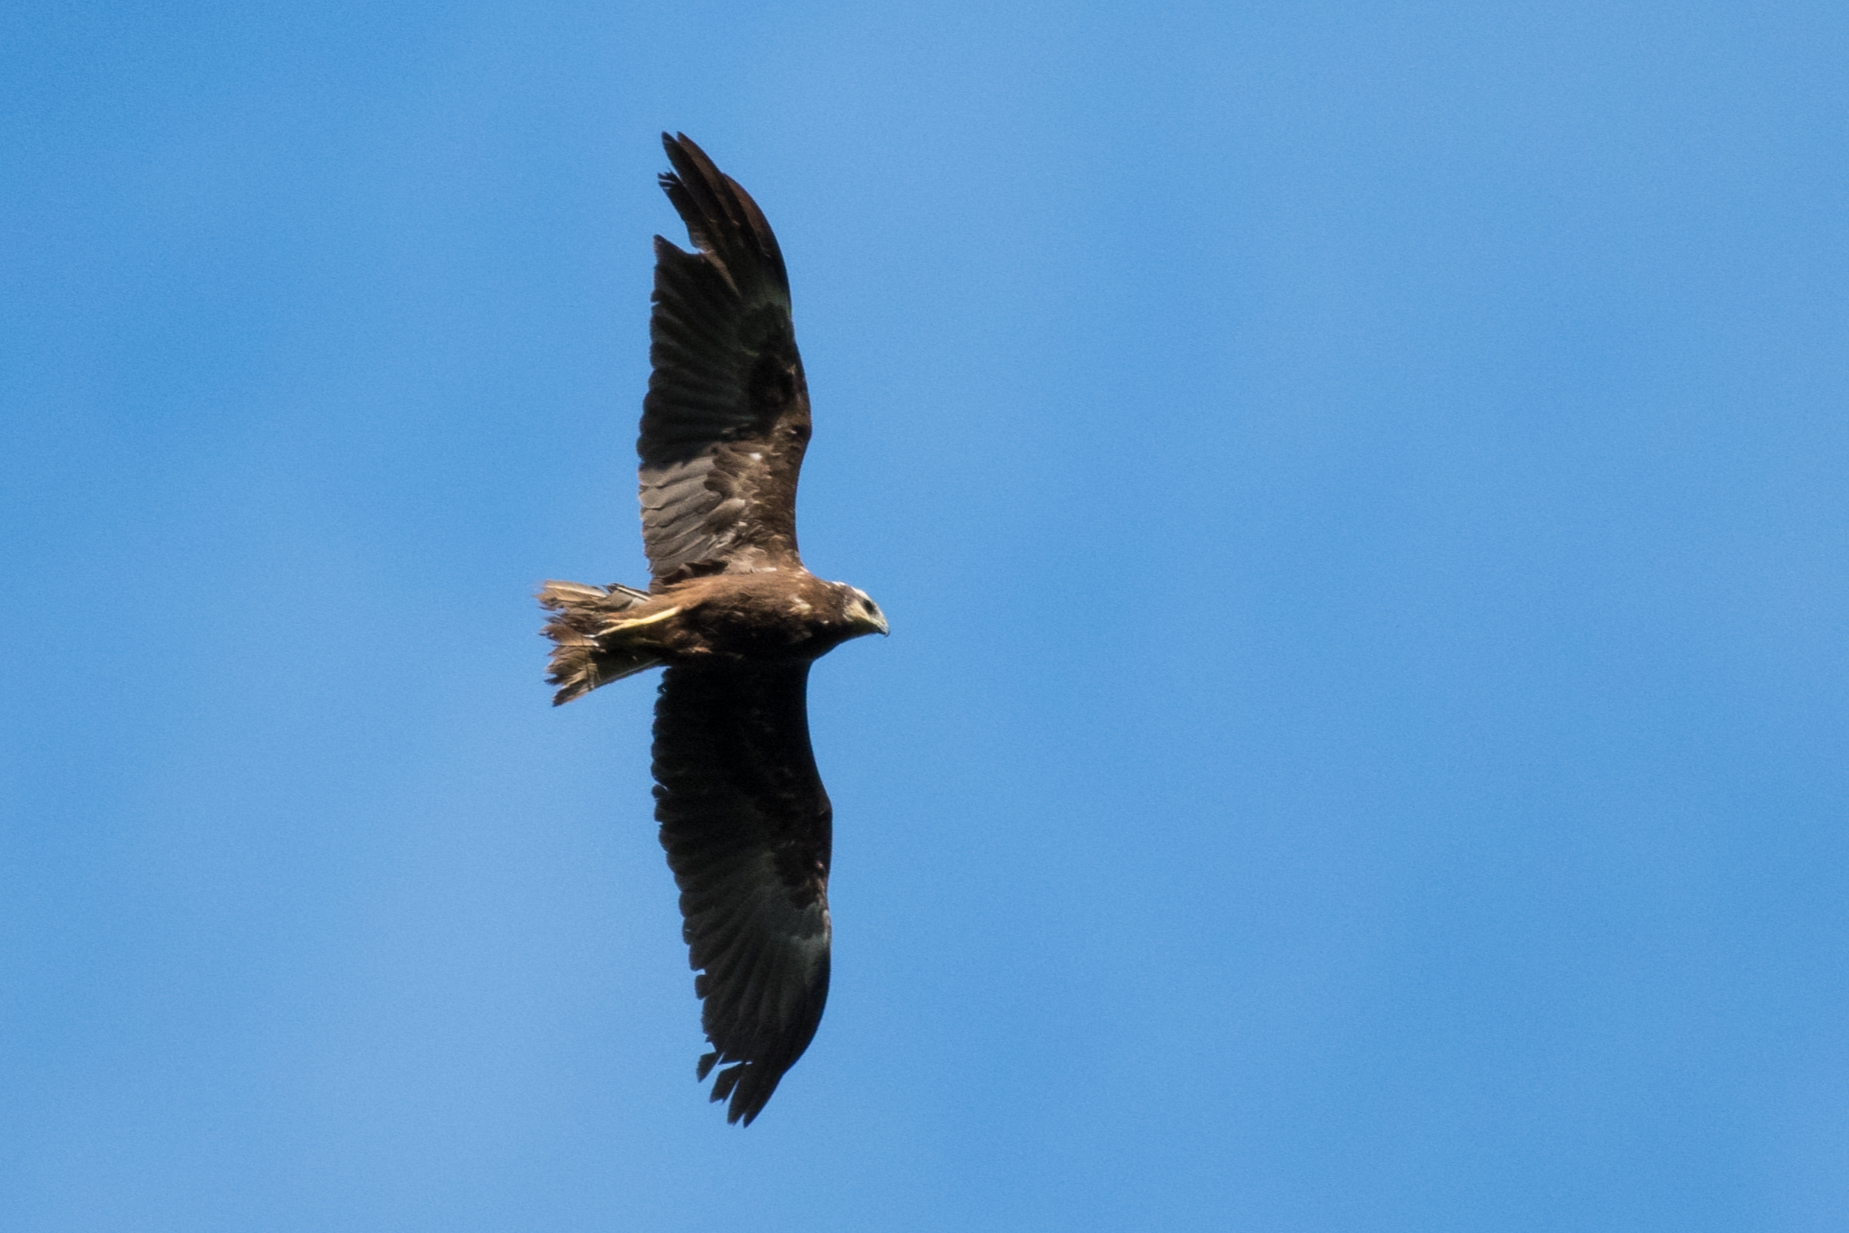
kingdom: Animalia
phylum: Chordata
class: Aves
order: Accipitriformes
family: Accipitridae
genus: Circus
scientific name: Circus aeruginosus
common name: Western marsh harrier
